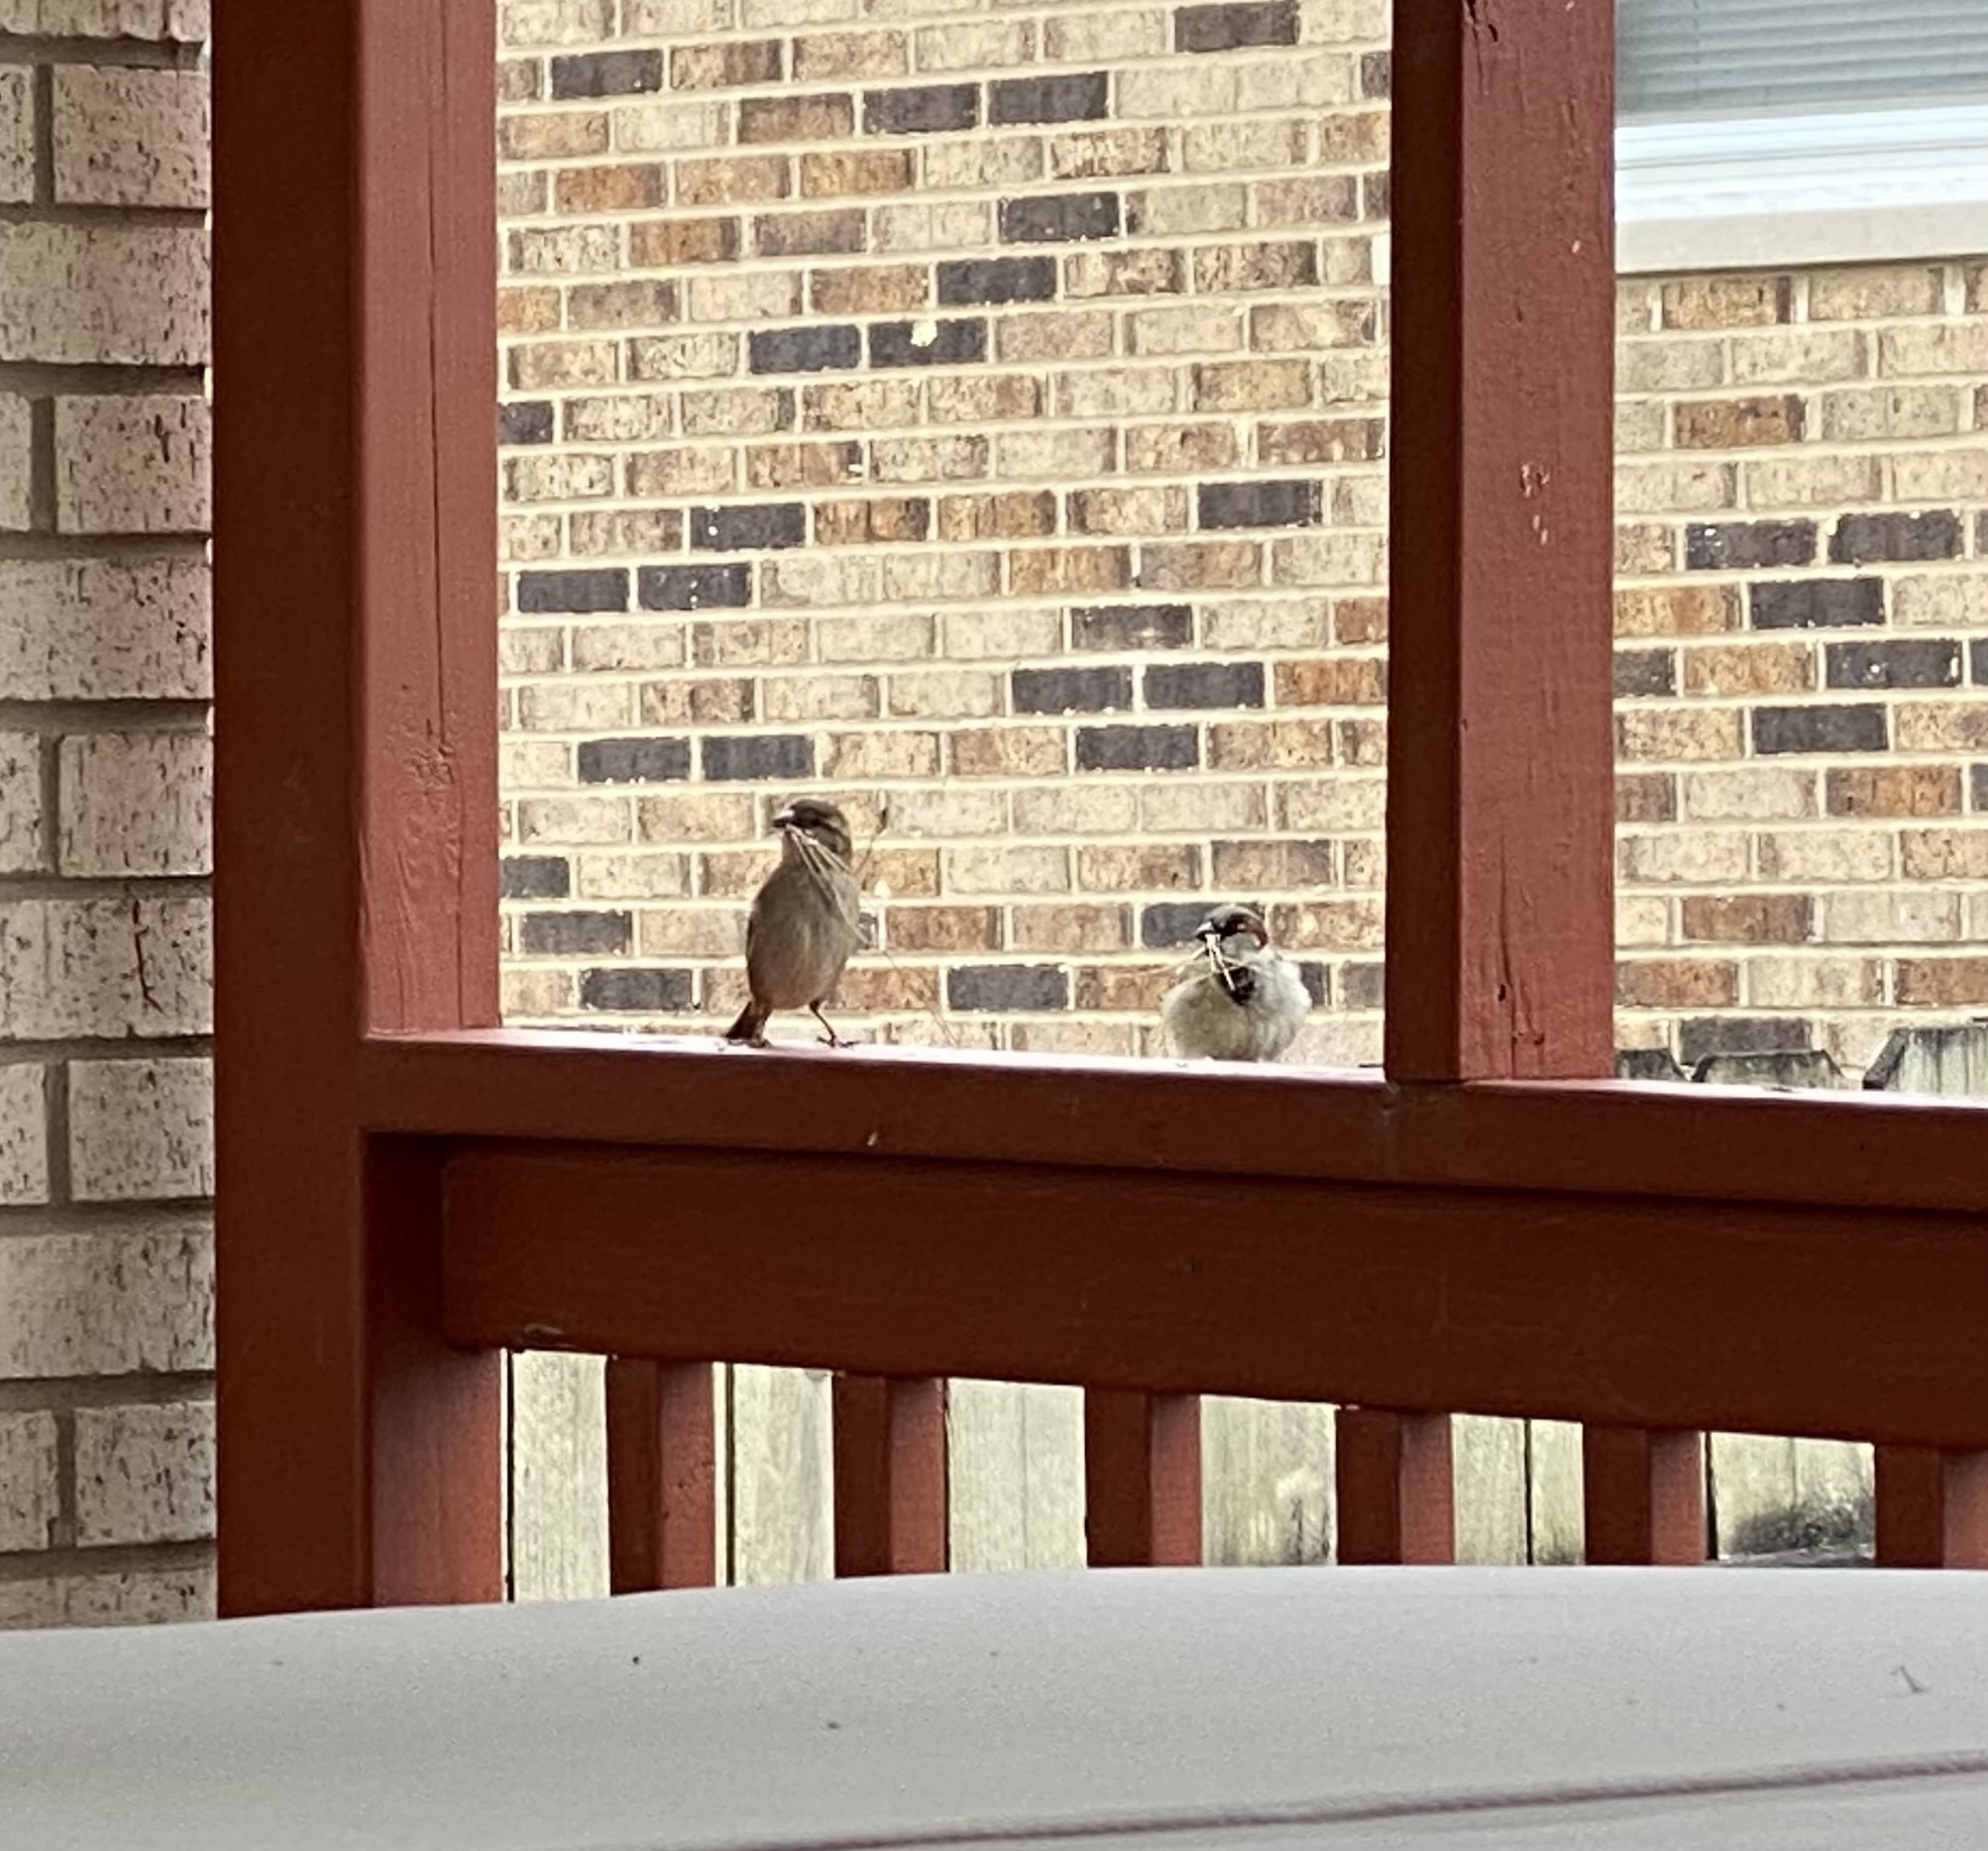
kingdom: Animalia
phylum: Chordata
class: Aves
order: Passeriformes
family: Passeridae
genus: Passer
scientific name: Passer domesticus
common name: House sparrow
